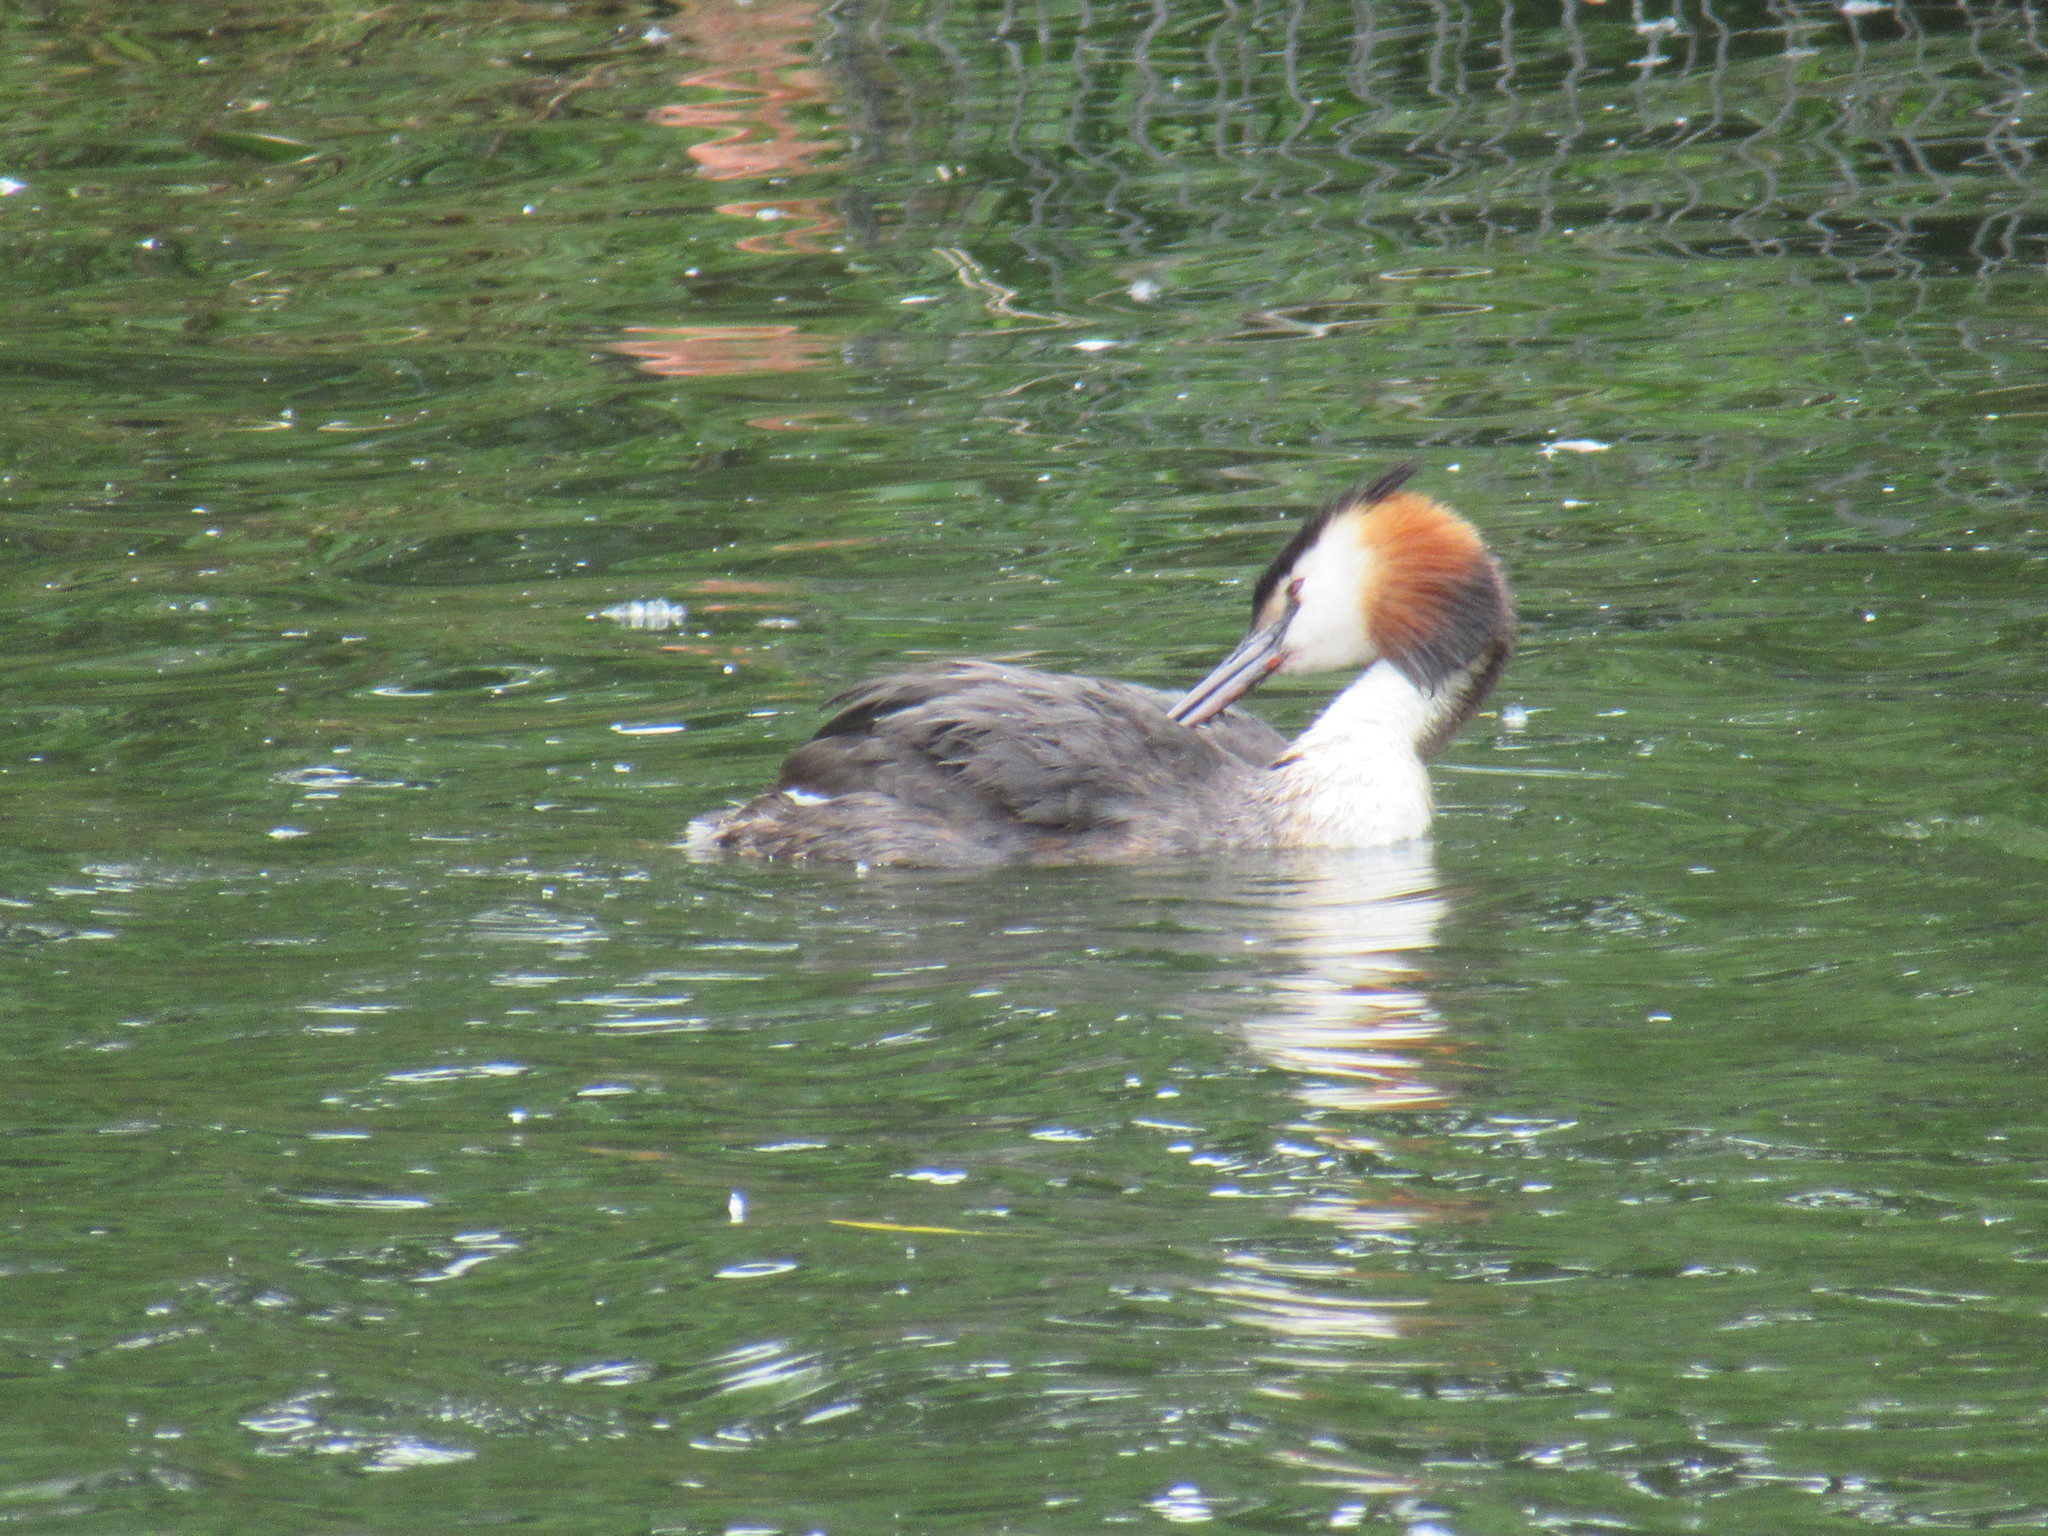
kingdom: Animalia
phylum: Chordata
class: Aves
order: Podicipediformes
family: Podicipedidae
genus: Podiceps
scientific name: Podiceps cristatus
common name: Great crested grebe
